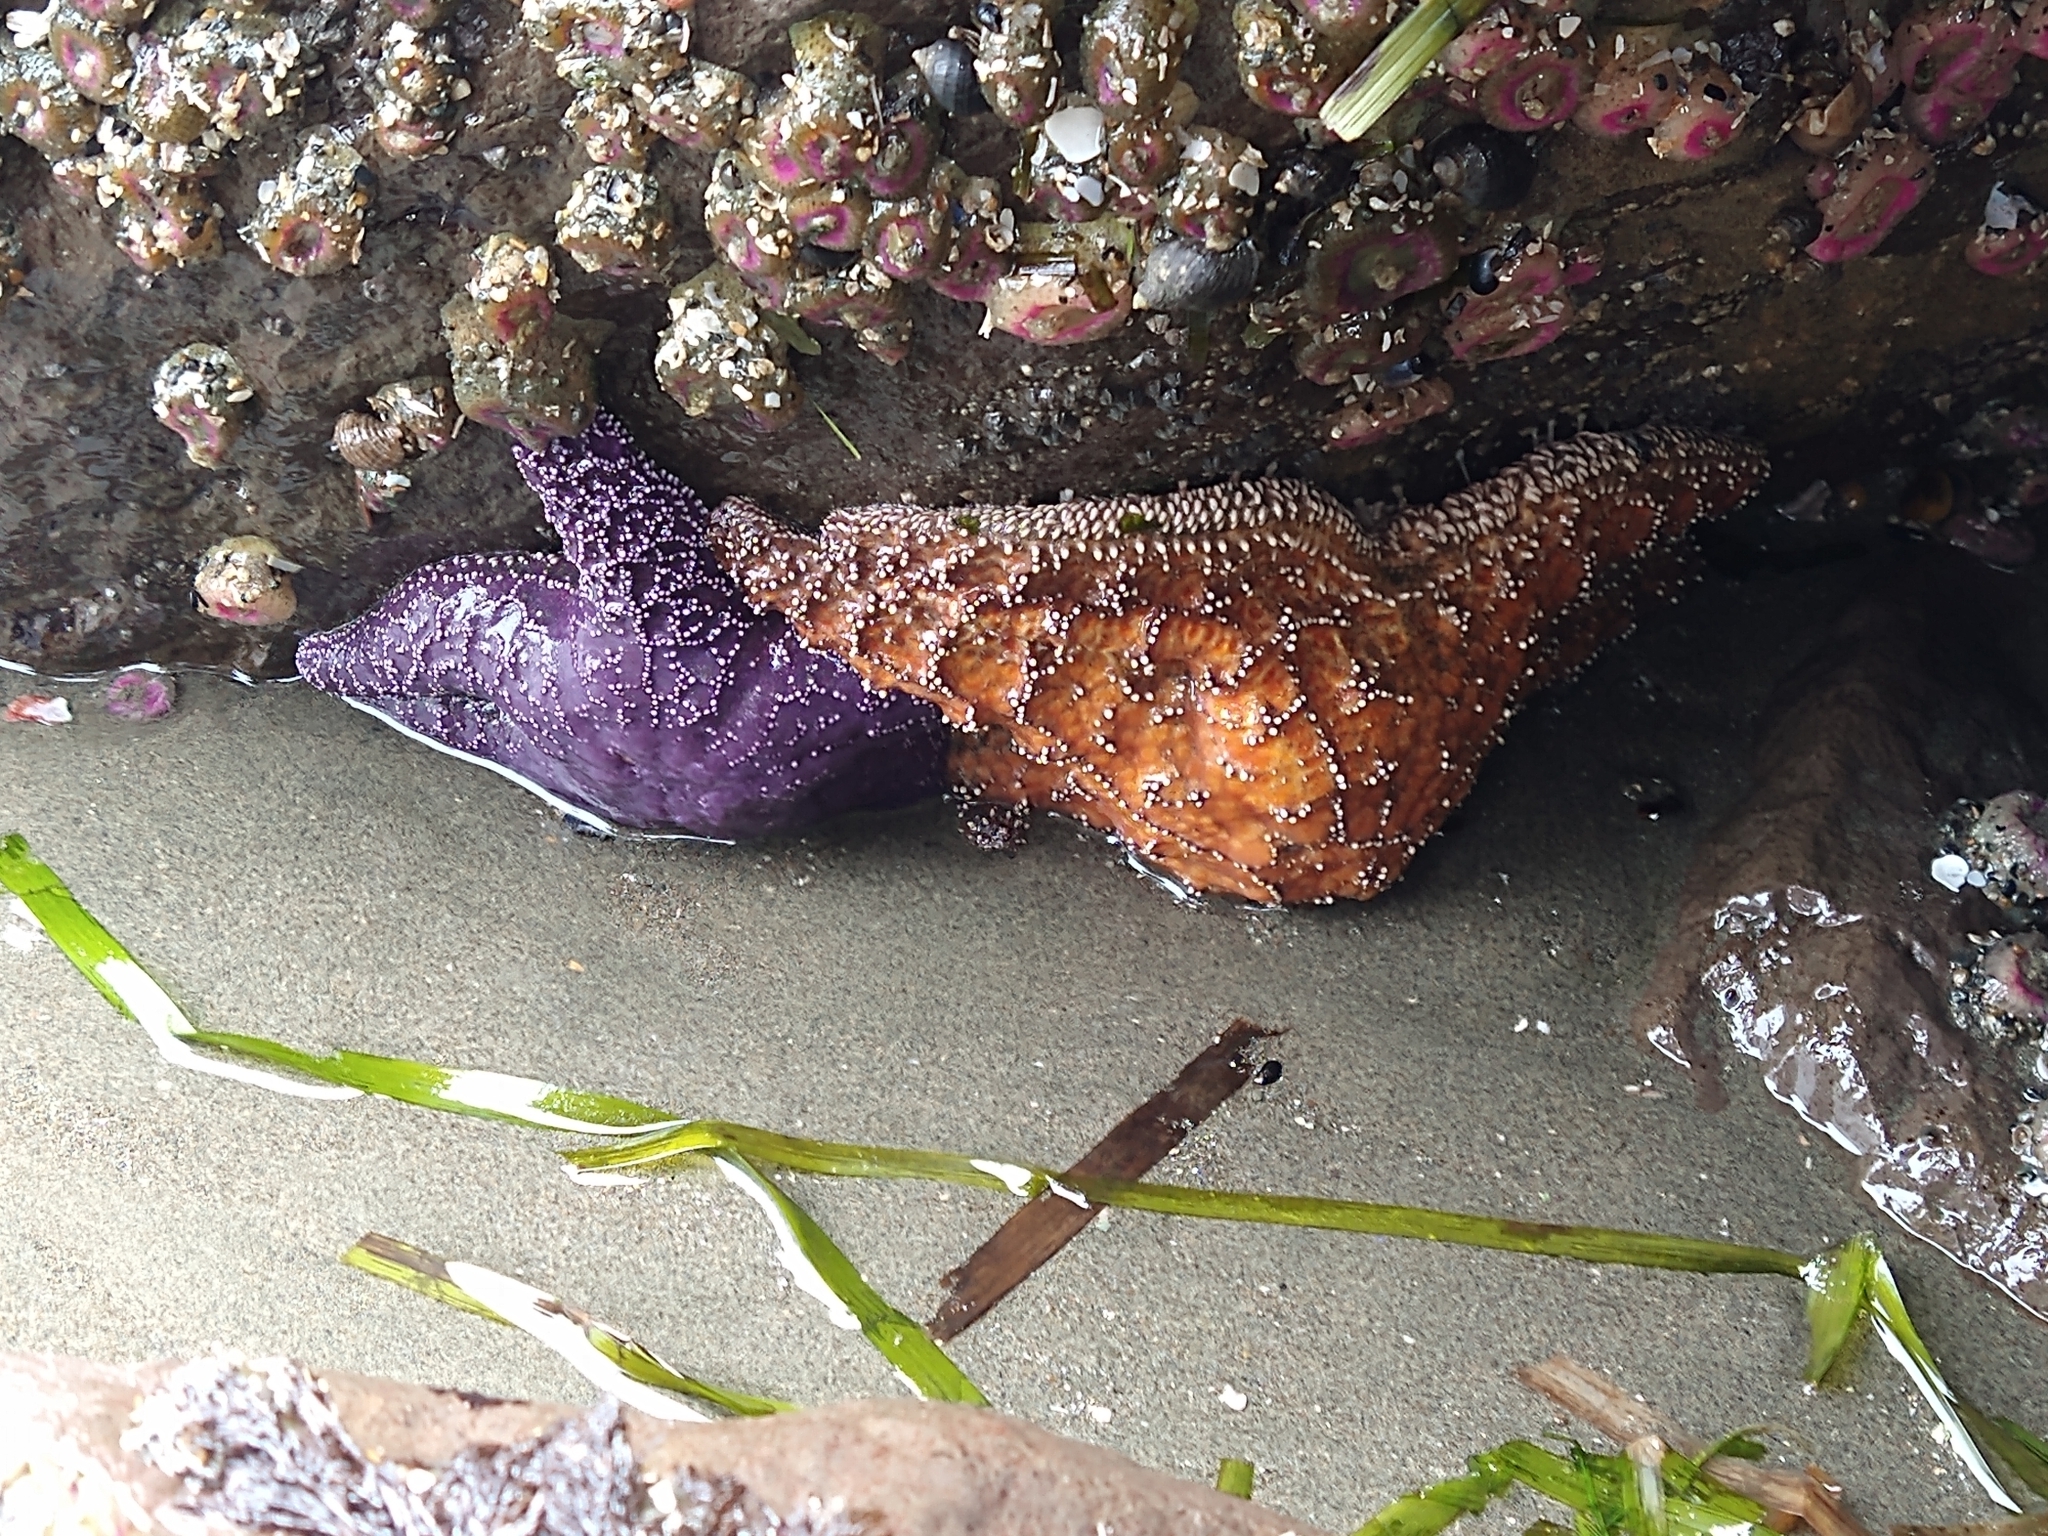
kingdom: Animalia
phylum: Echinodermata
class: Asteroidea
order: Forcipulatida
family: Asteriidae
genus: Pisaster
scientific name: Pisaster ochraceus
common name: Ochre stars
